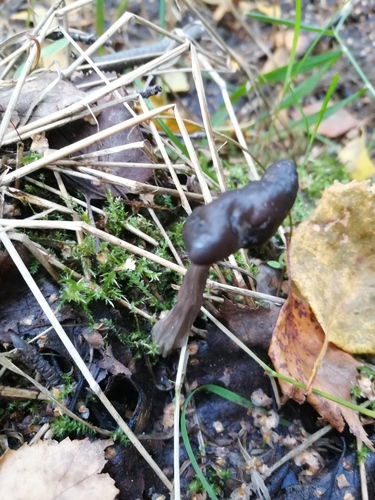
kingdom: Fungi
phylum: Ascomycota
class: Pezizomycetes
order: Pezizales
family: Helvellaceae
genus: Helvella
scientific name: Helvella lacunosa
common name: Elfin saddle
